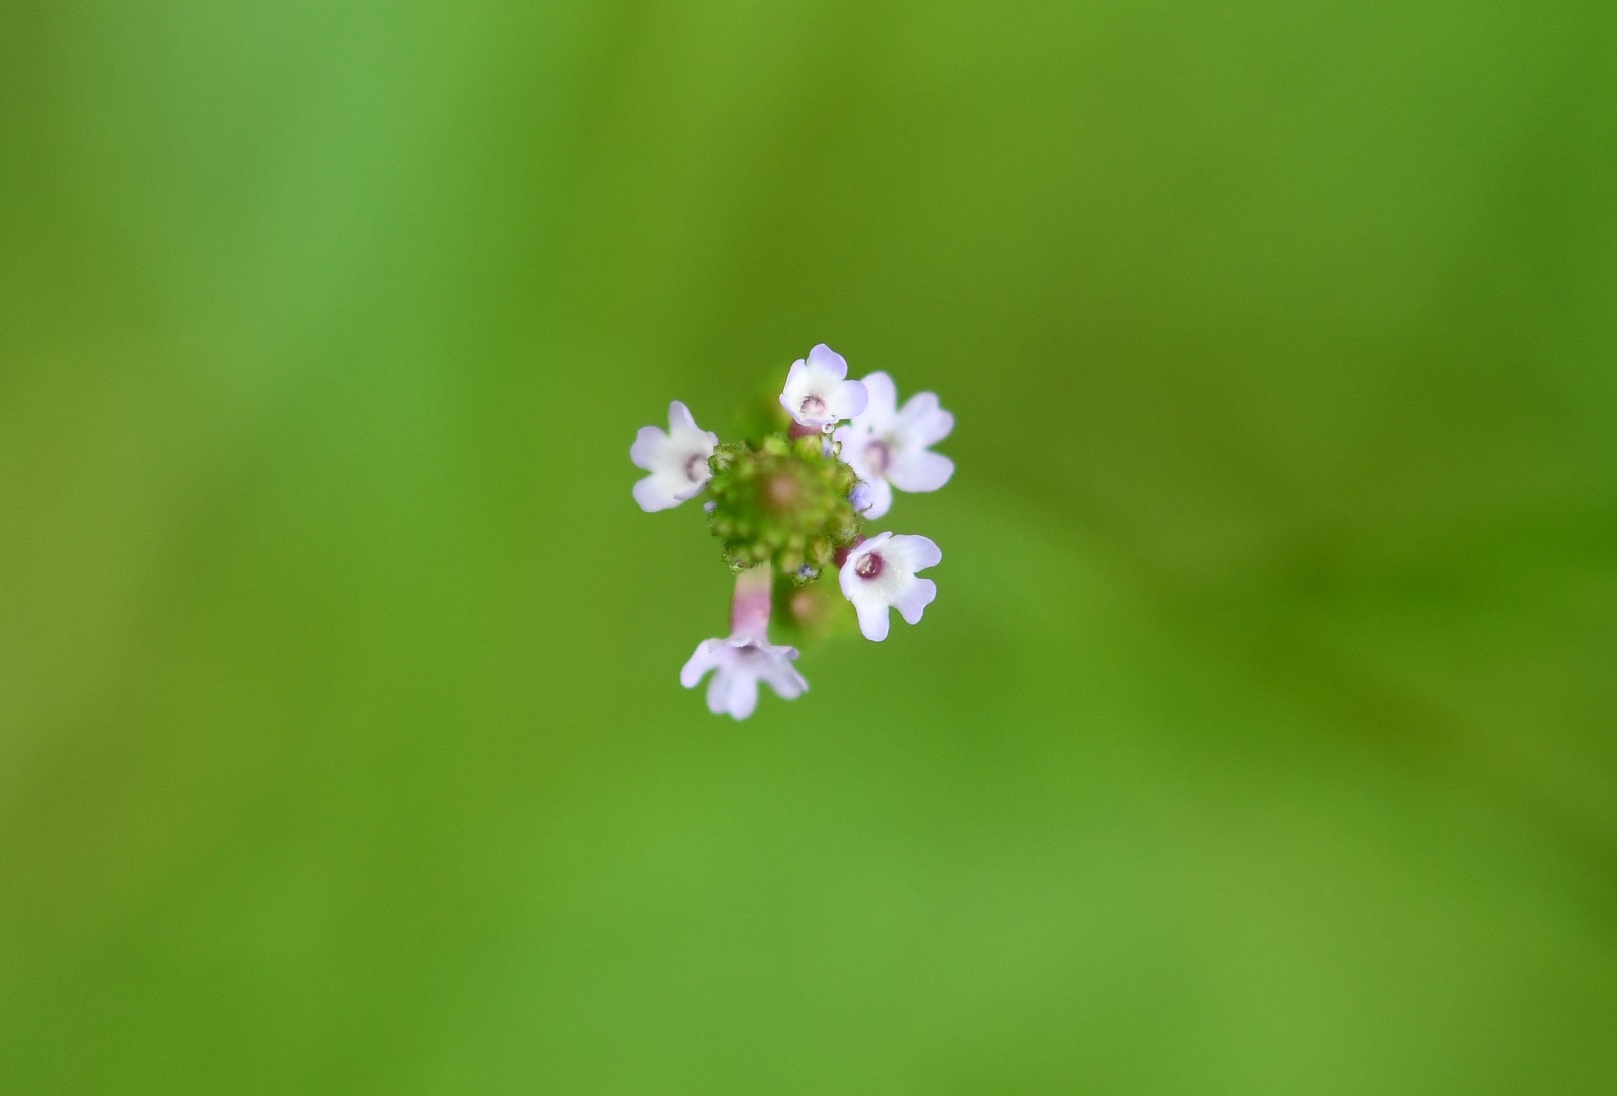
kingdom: Plantae
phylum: Tracheophyta
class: Magnoliopsida
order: Lamiales
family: Verbenaceae
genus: Verbena
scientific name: Verbena carolina
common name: Carolina vervain
